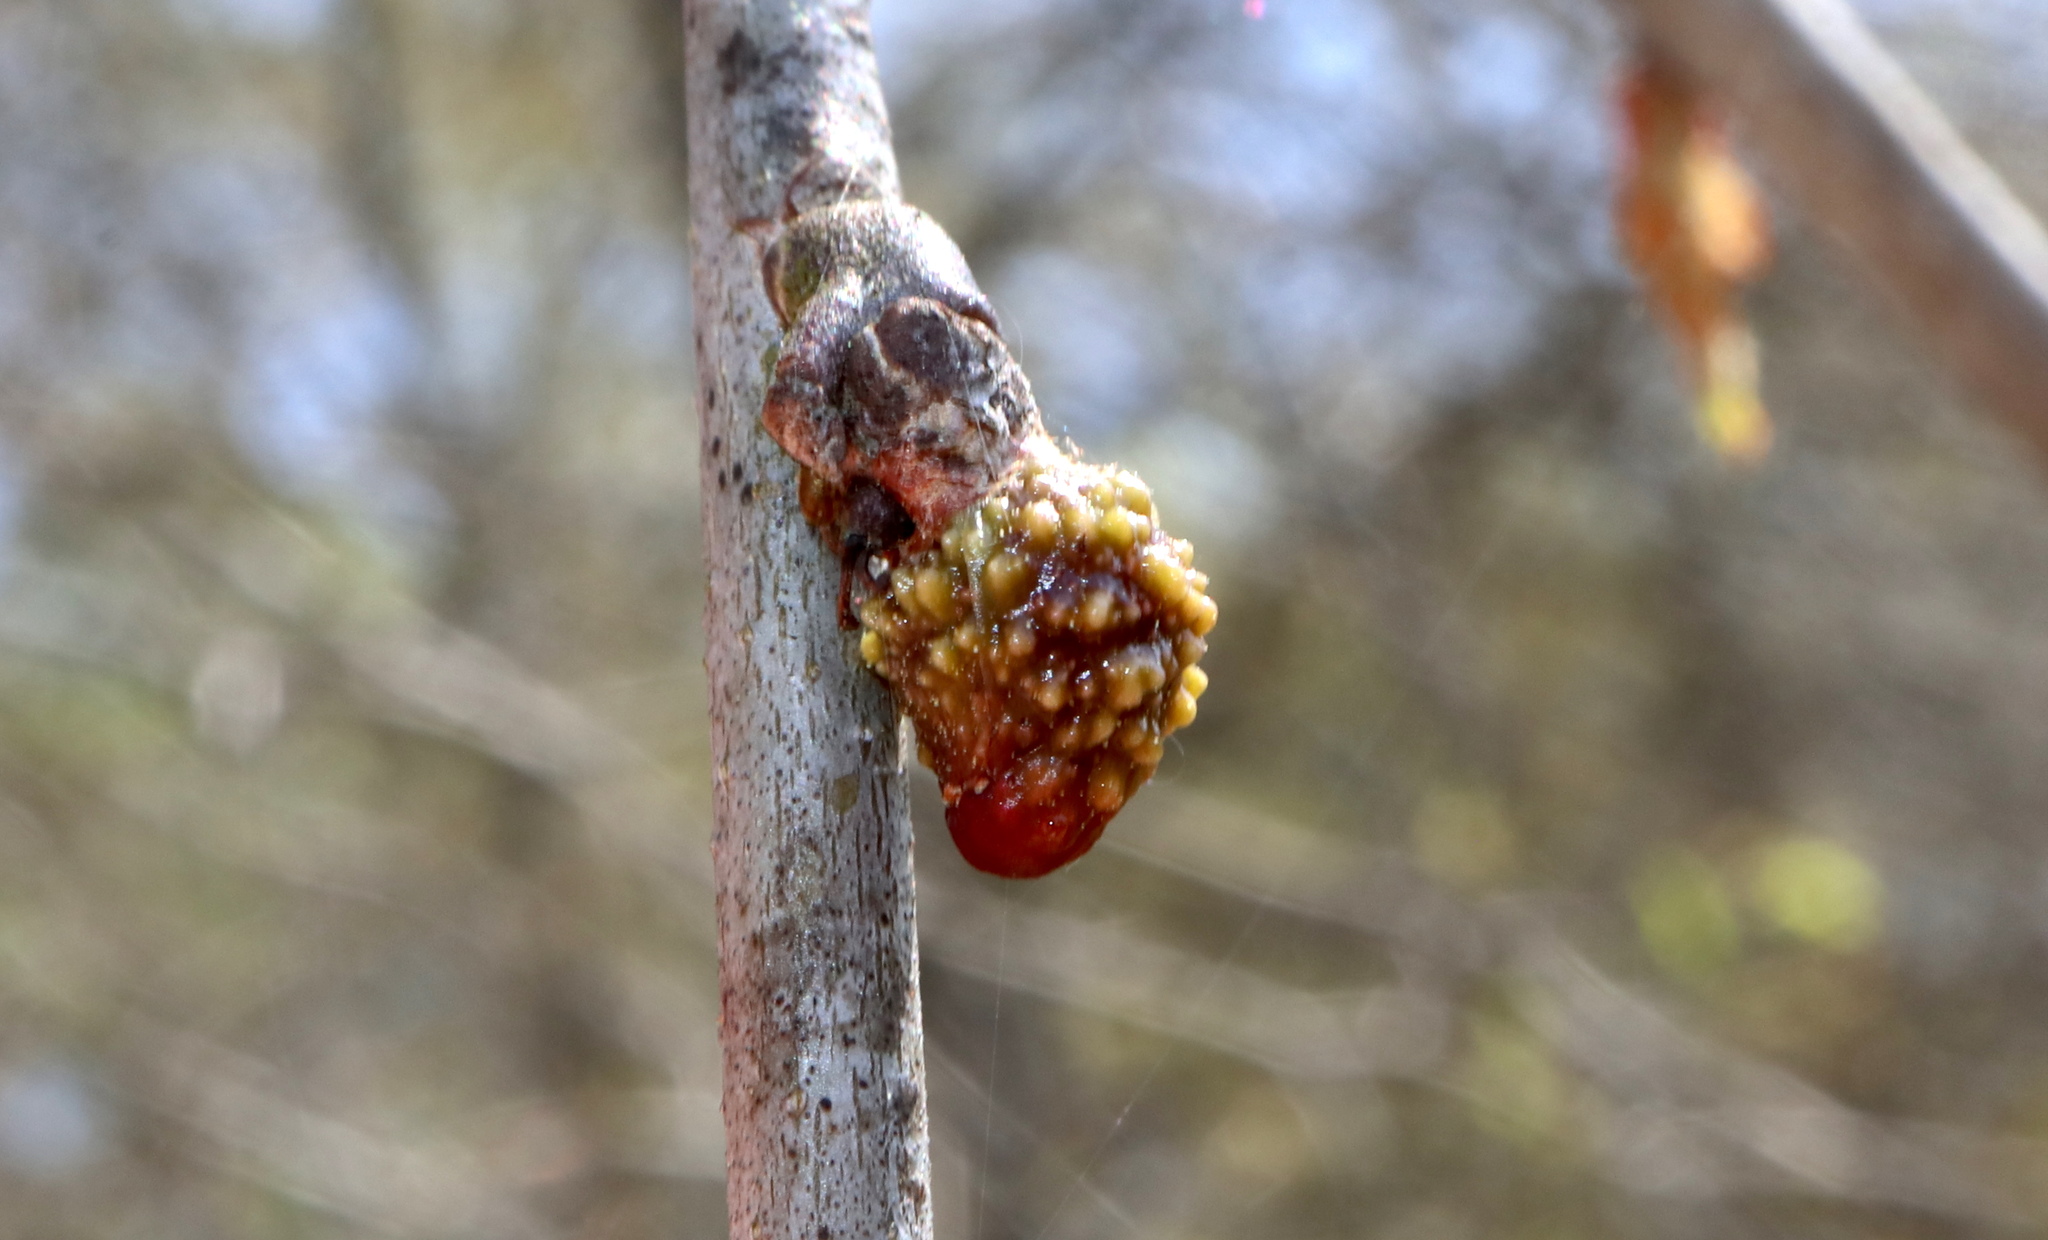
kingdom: Animalia
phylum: Arthropoda
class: Insecta
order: Hymenoptera
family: Cynipidae
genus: Callirhytis
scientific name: Callirhytis
